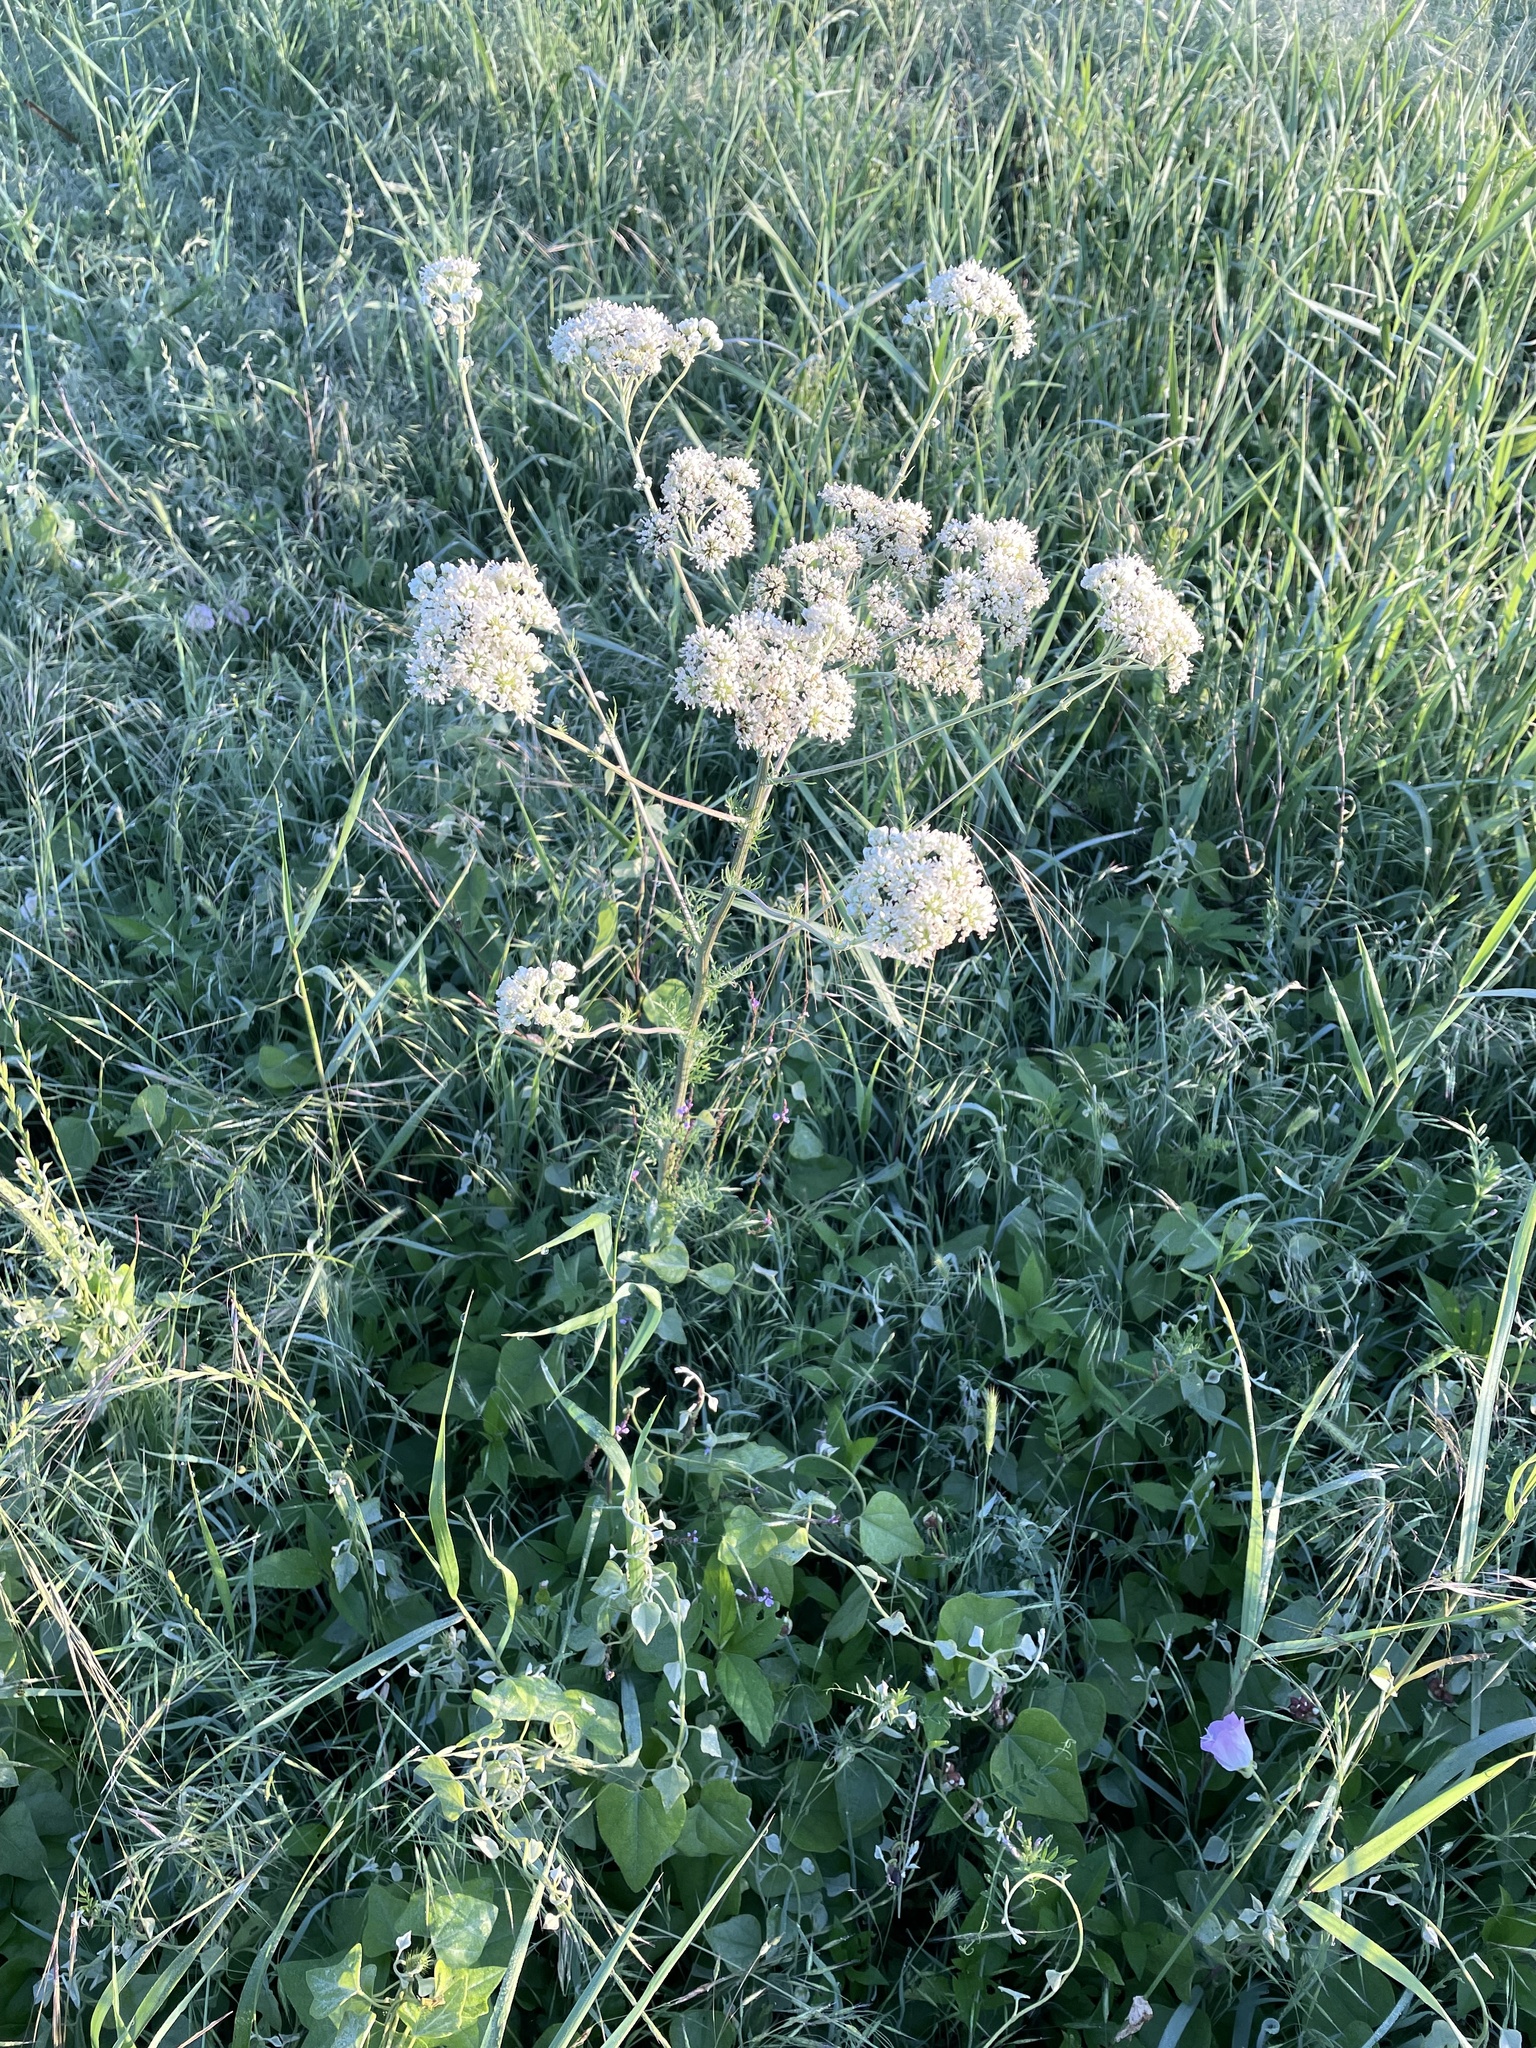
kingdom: Plantae
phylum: Tracheophyta
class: Magnoliopsida
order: Asterales
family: Asteraceae
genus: Hymenopappus
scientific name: Hymenopappus scabiosaeus
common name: Carolina woollywhite
